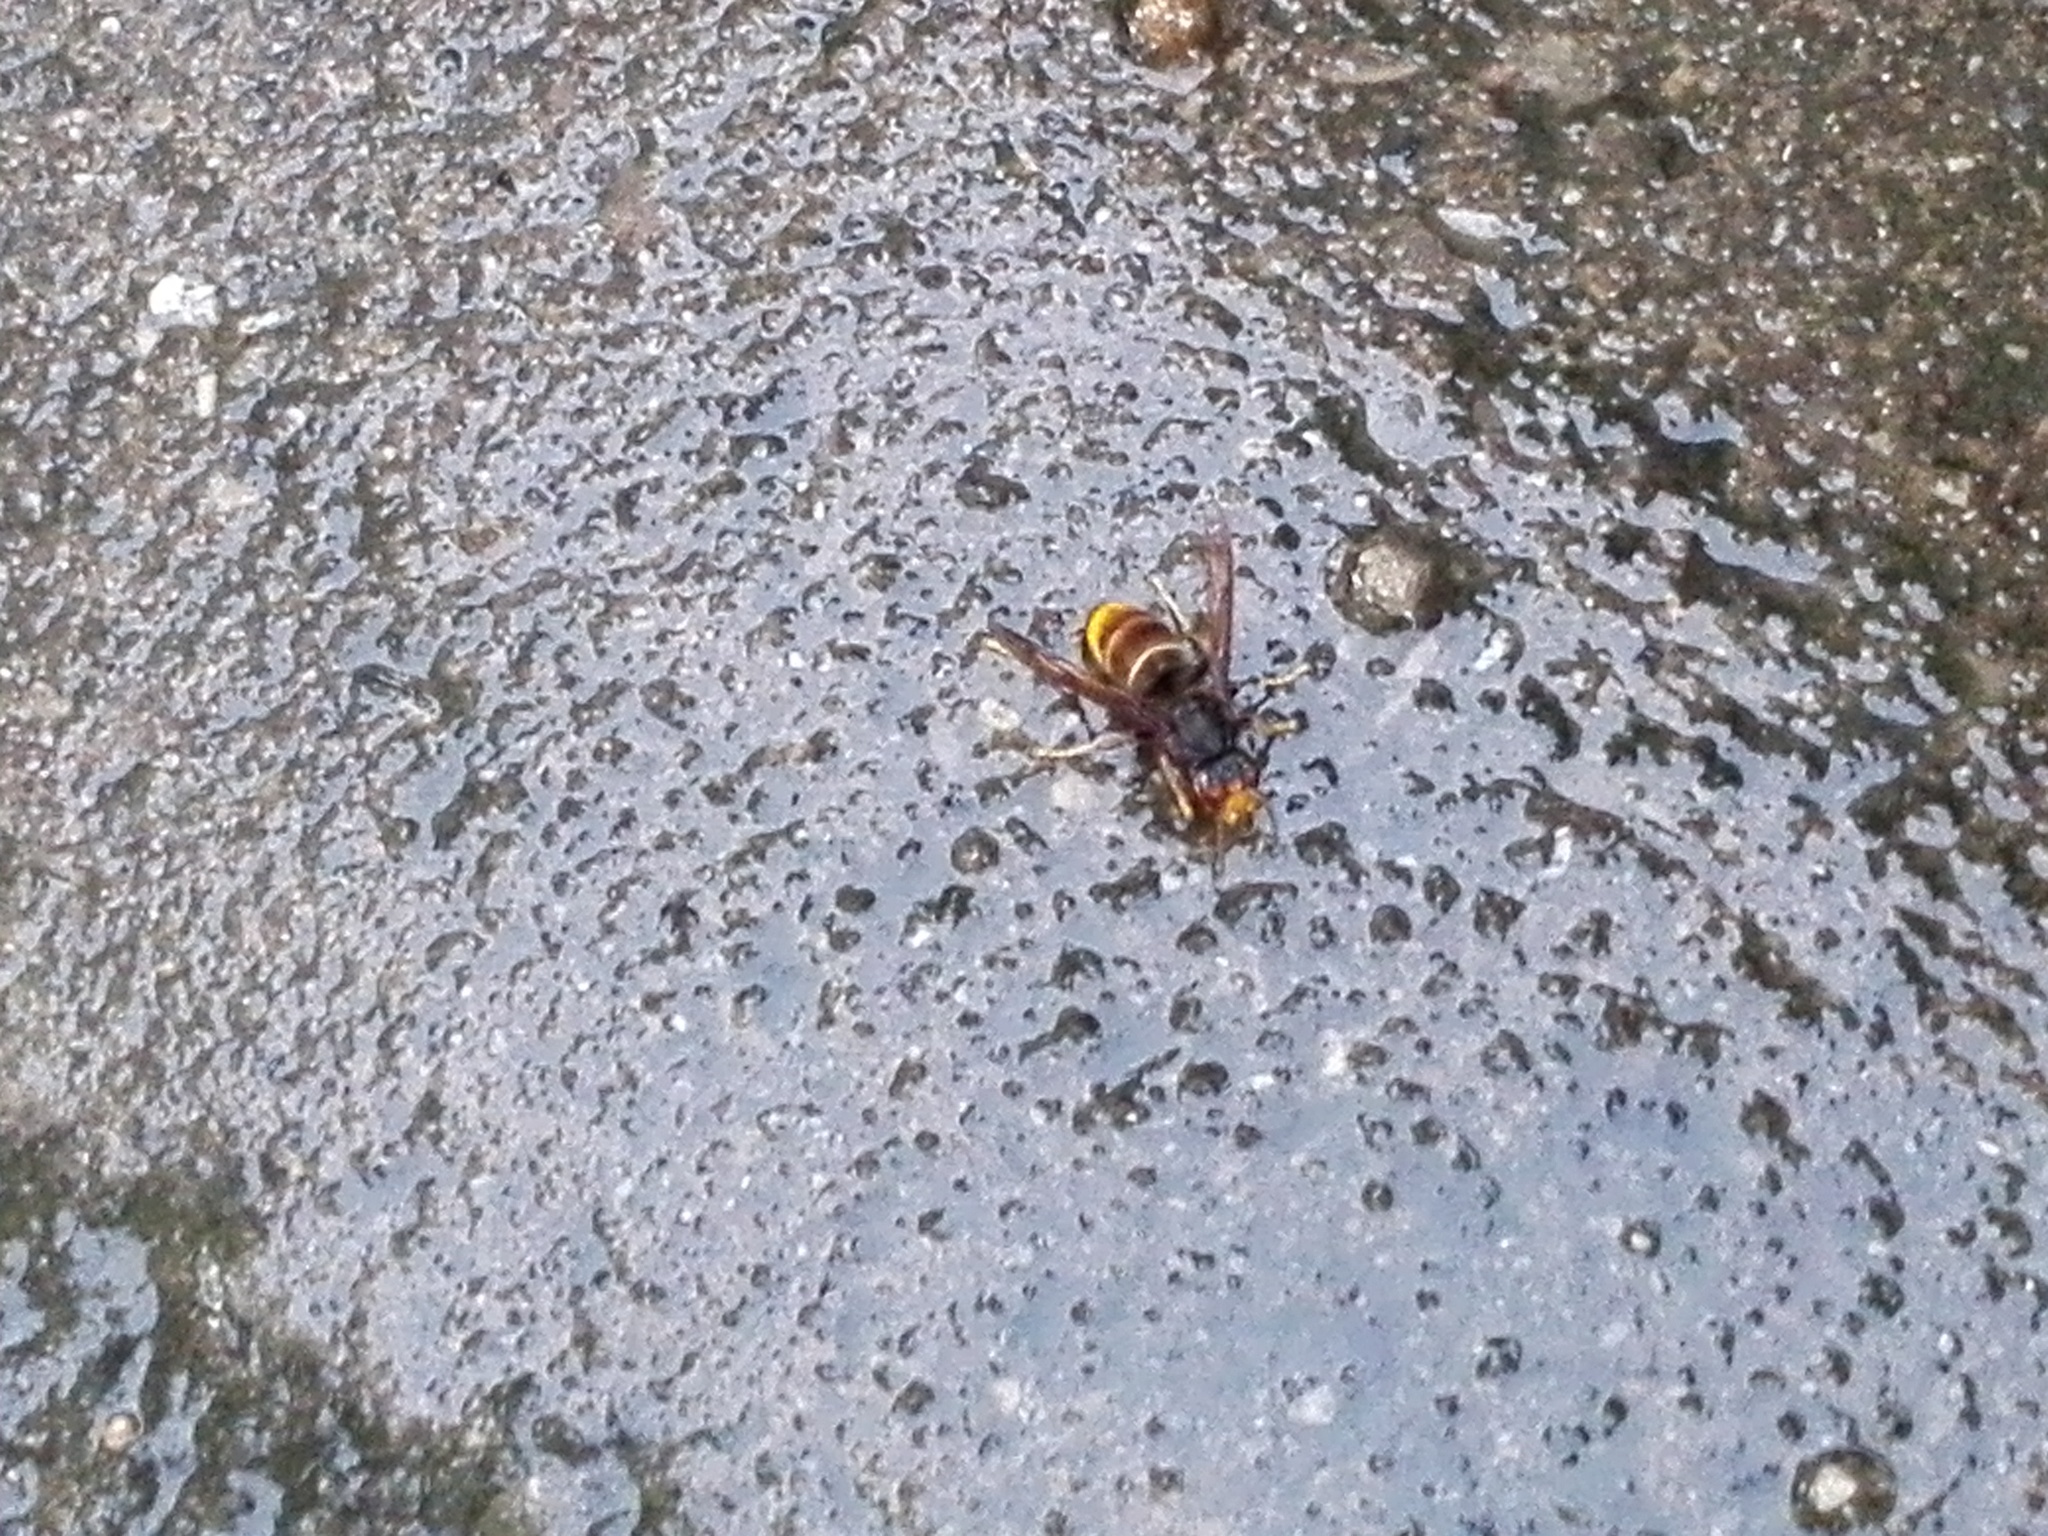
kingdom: Animalia
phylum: Arthropoda
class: Insecta
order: Hymenoptera
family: Vespidae
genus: Vespa
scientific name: Vespa velutina
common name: Asian hornet
